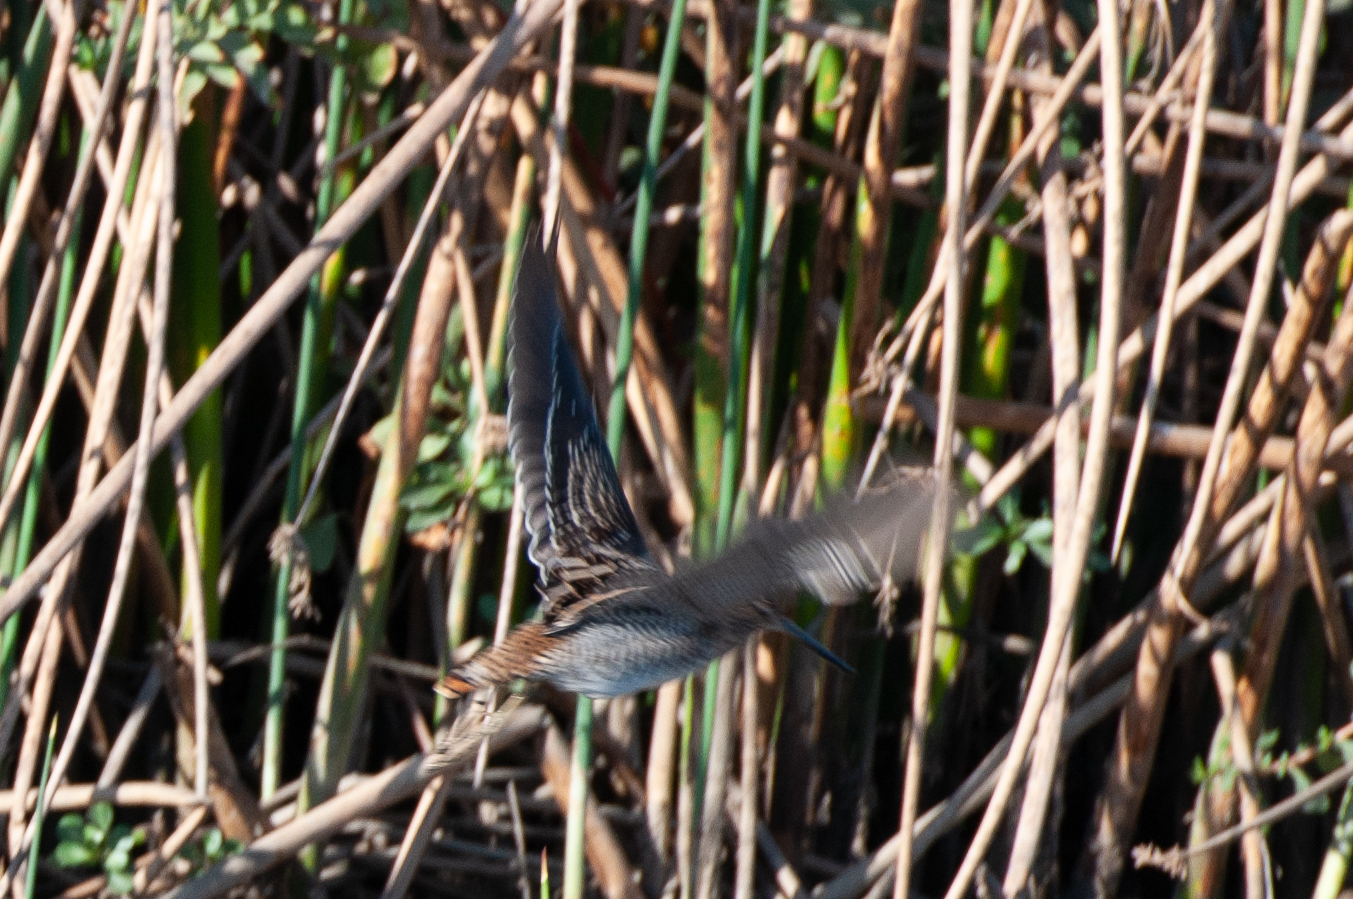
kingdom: Animalia
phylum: Chordata
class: Aves
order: Charadriiformes
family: Scolopacidae
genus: Gallinago
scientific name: Gallinago delicata
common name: Wilson's snipe
